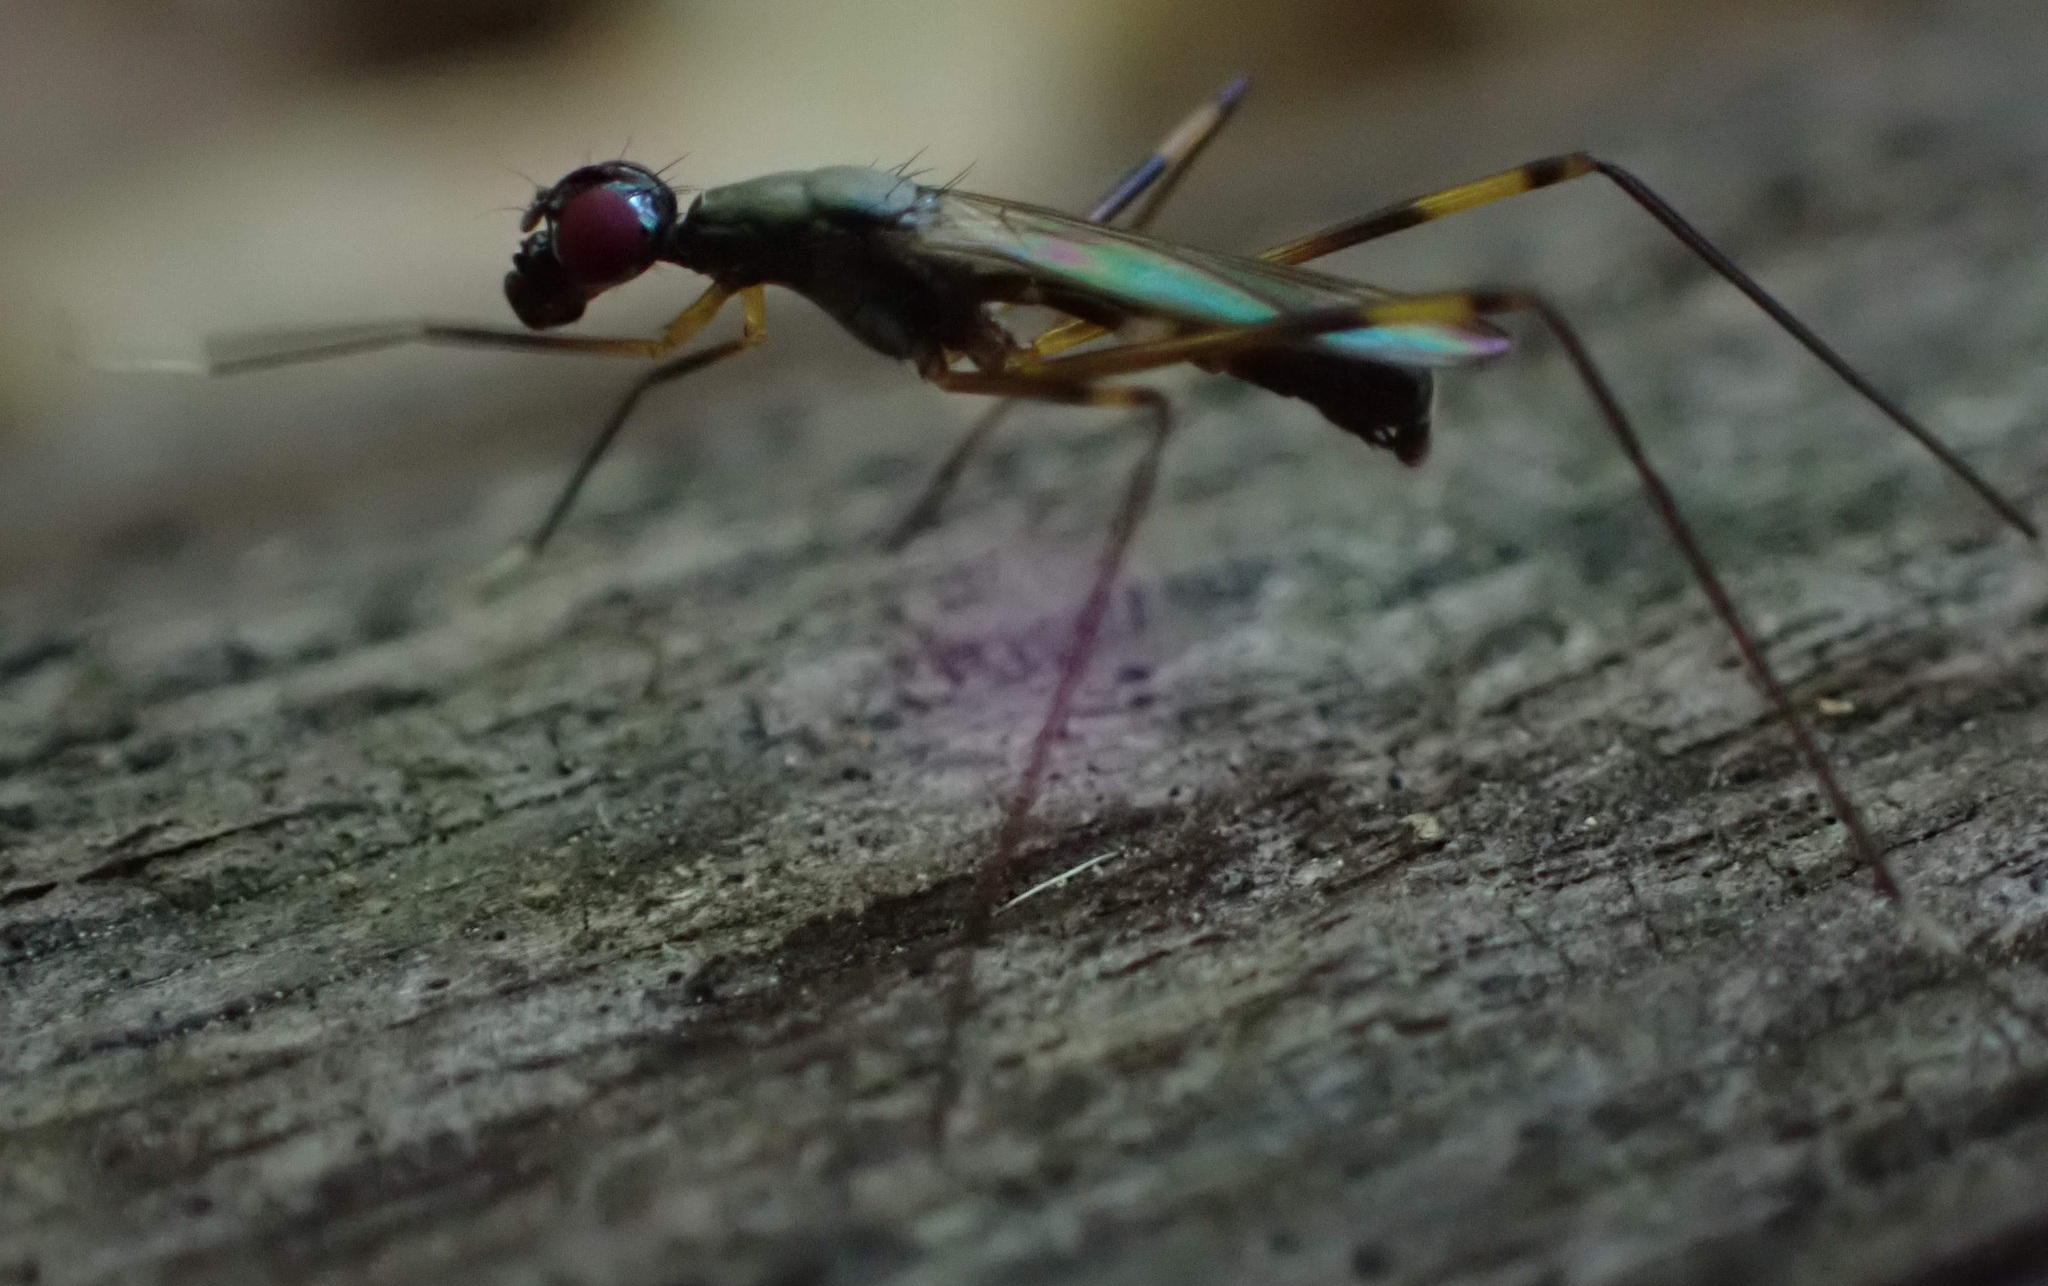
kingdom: Animalia
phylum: Arthropoda
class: Insecta
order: Diptera
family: Micropezidae
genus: Rainieria
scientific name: Rainieria antennaepes
